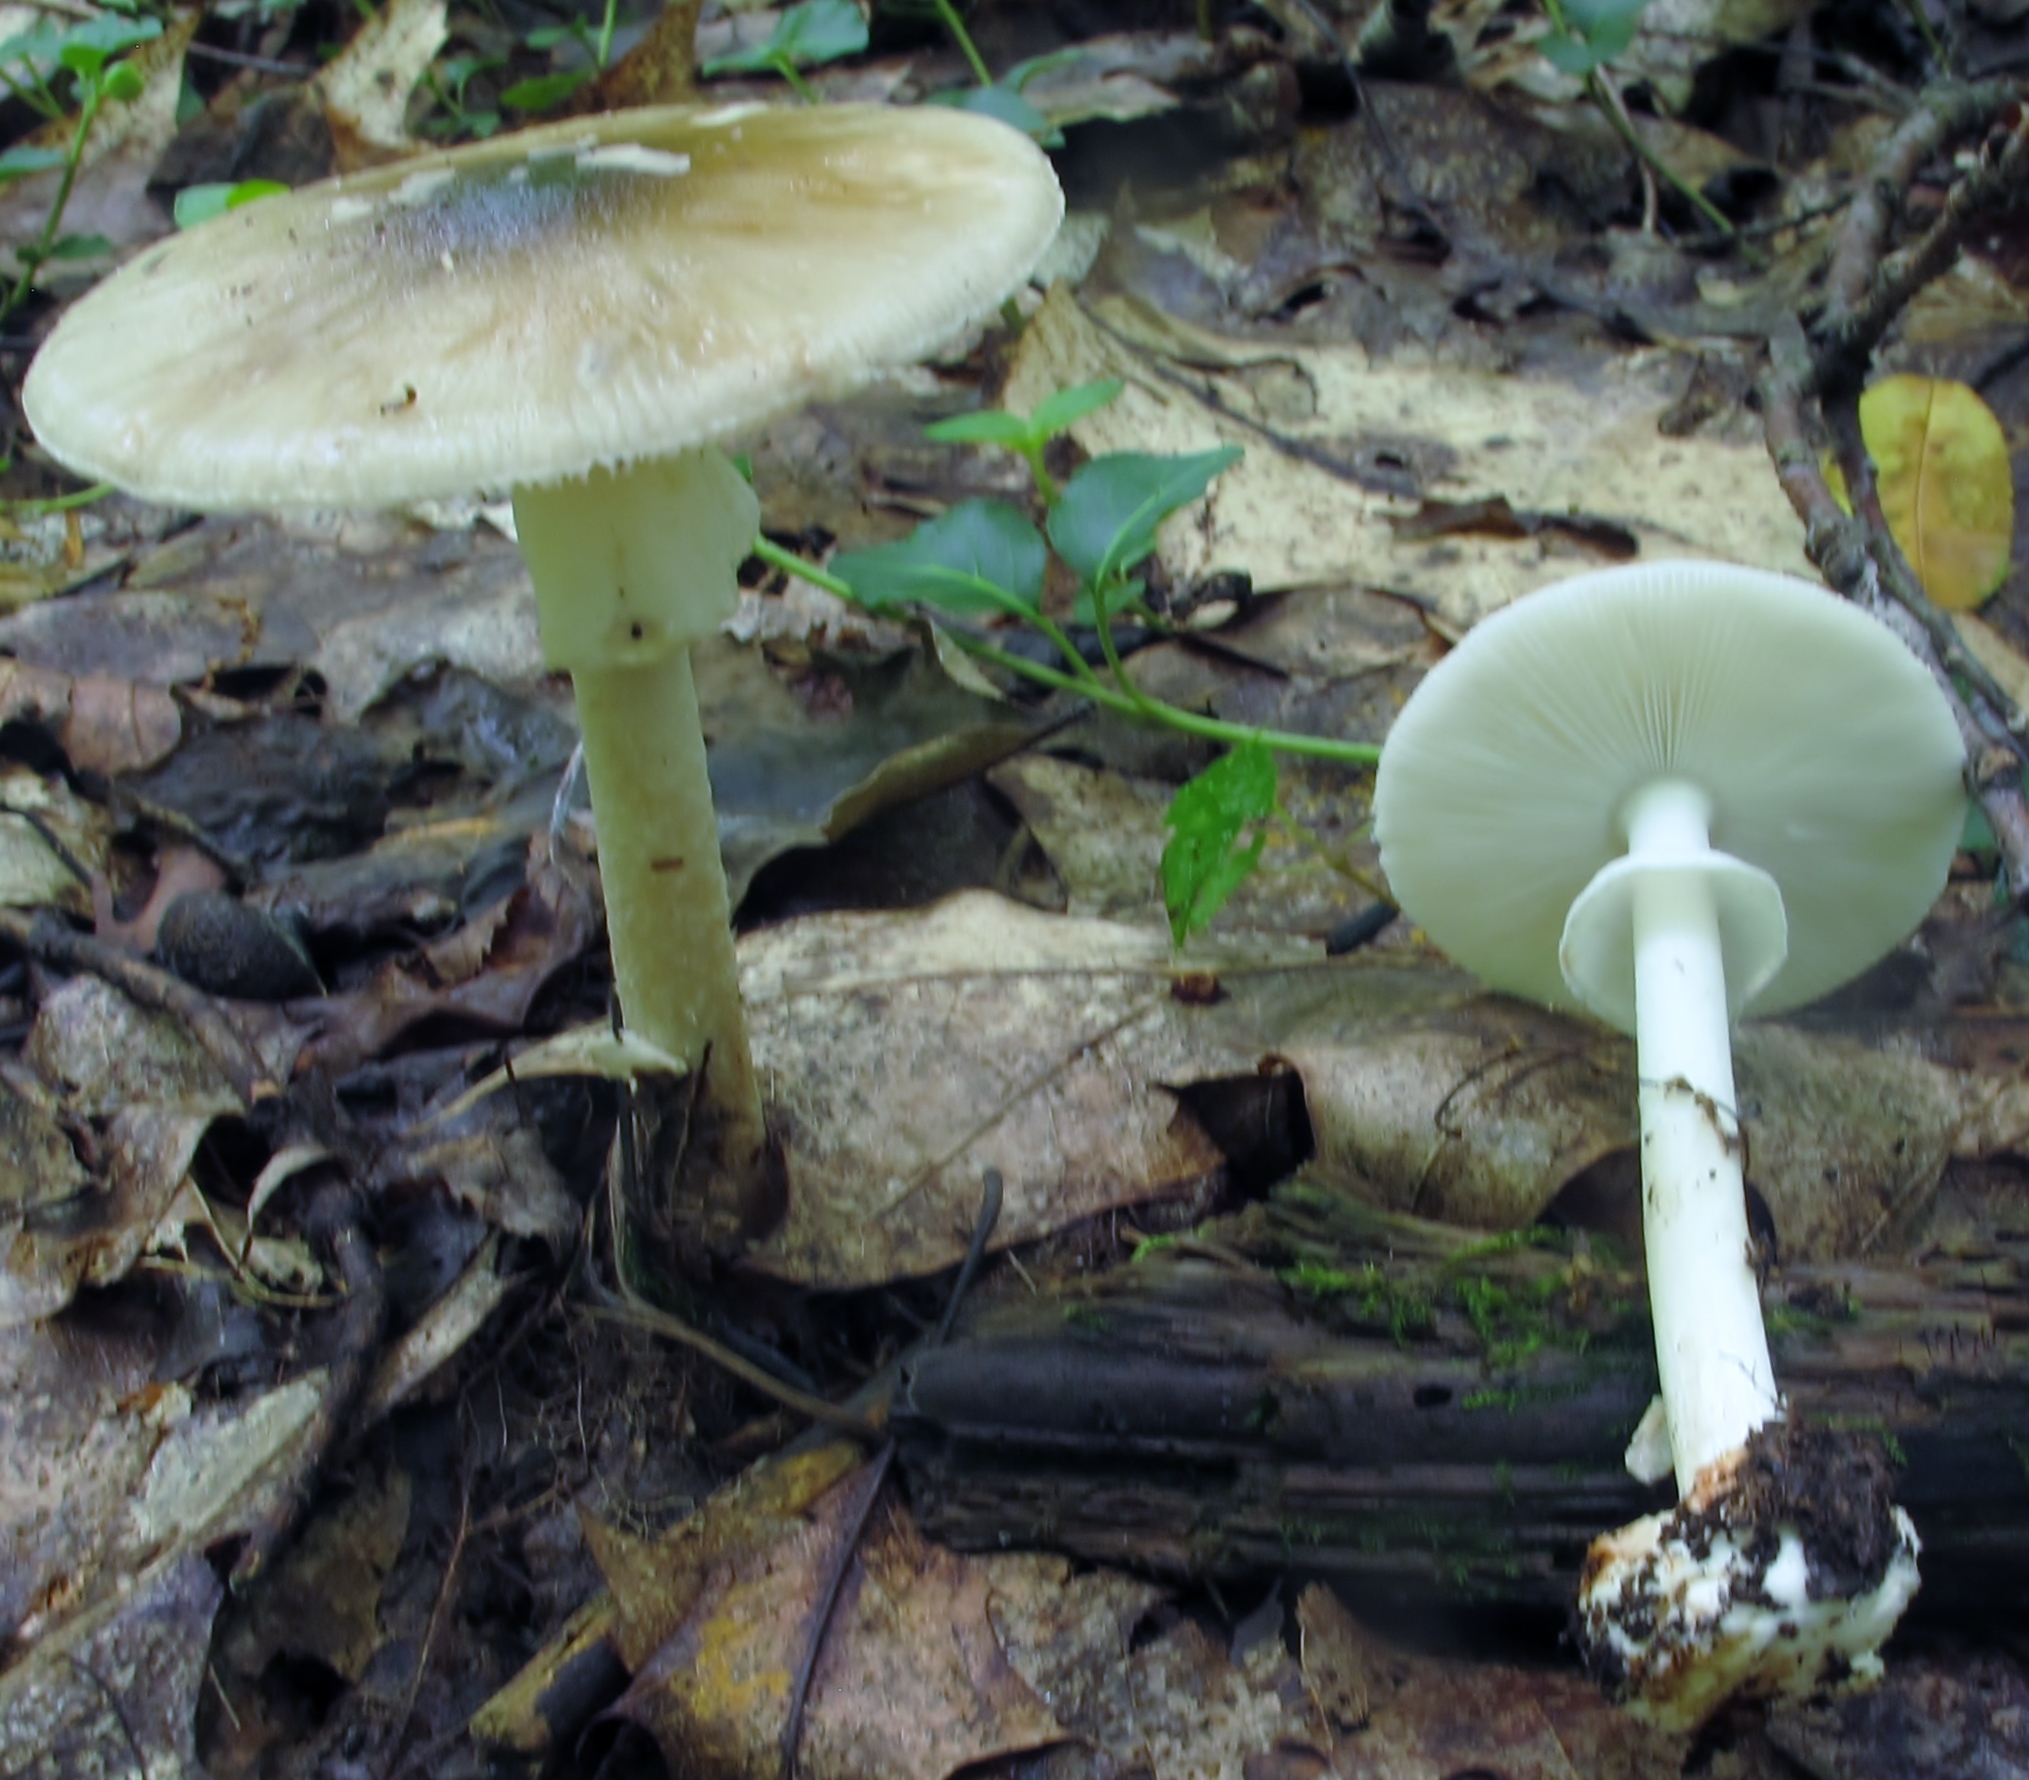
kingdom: Fungi
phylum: Basidiomycota
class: Agaricomycetes
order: Agaricales
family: Amanitaceae
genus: Amanita
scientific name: Amanita brunnescens
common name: Brown american star-footed amanita
